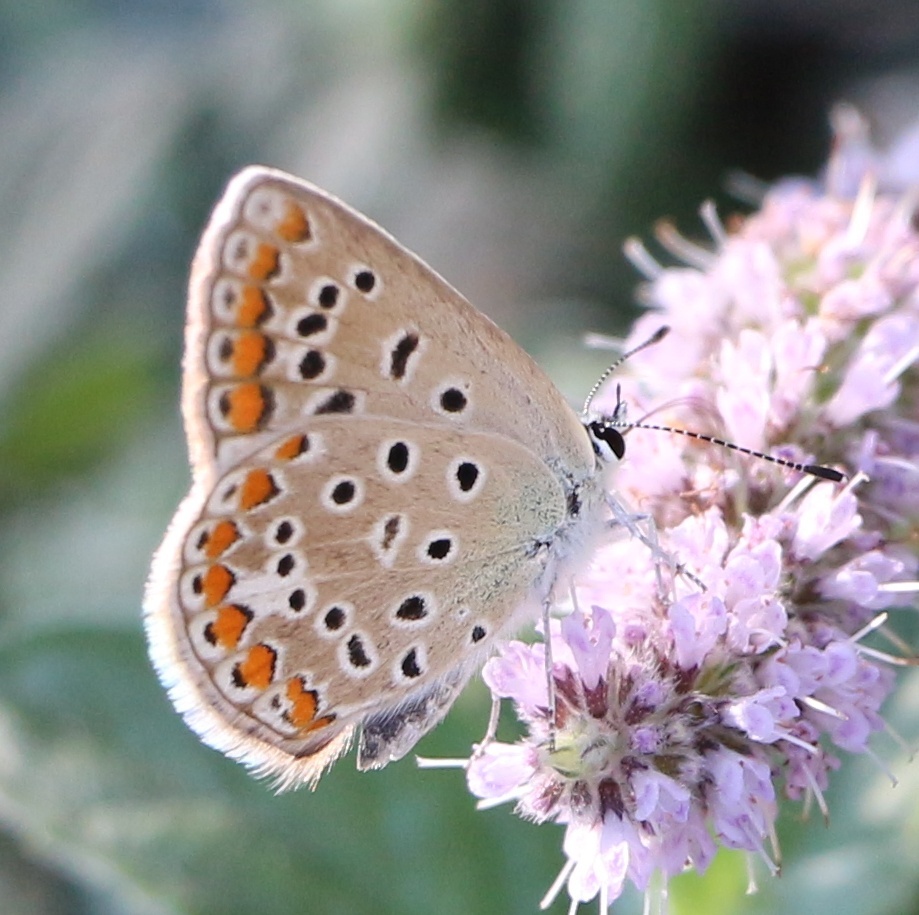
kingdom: Animalia
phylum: Arthropoda
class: Insecta
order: Lepidoptera
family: Lycaenidae
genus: Polyommatus
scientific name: Polyommatus icarus
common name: Common blue
